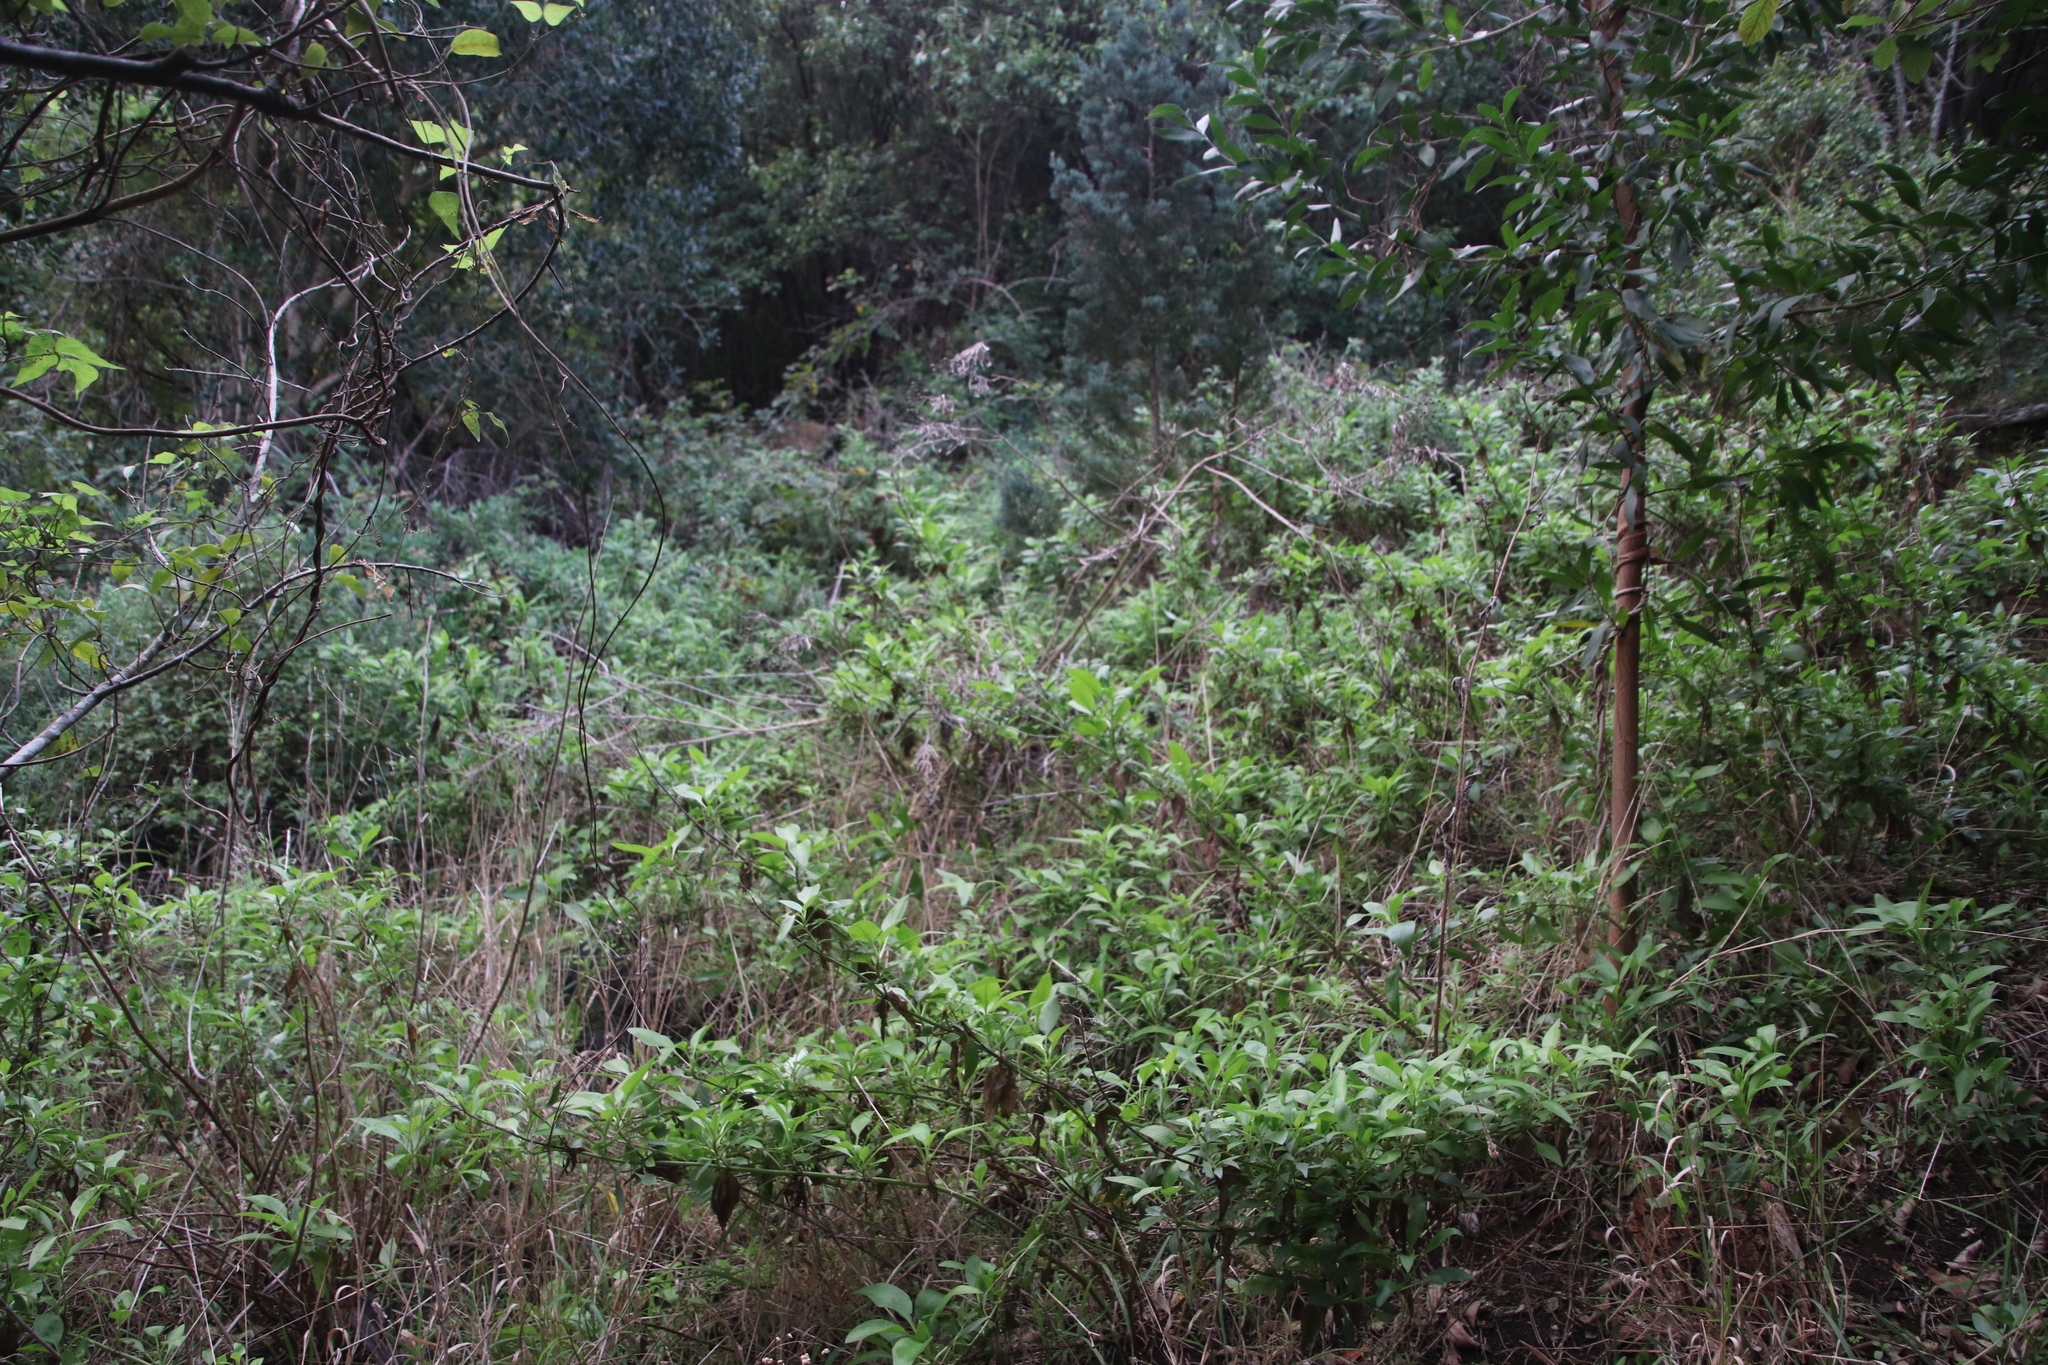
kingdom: Plantae
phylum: Tracheophyta
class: Magnoliopsida
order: Dipsacales
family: Caprifoliaceae
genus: Centranthus
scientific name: Centranthus ruber
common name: Red valerian
